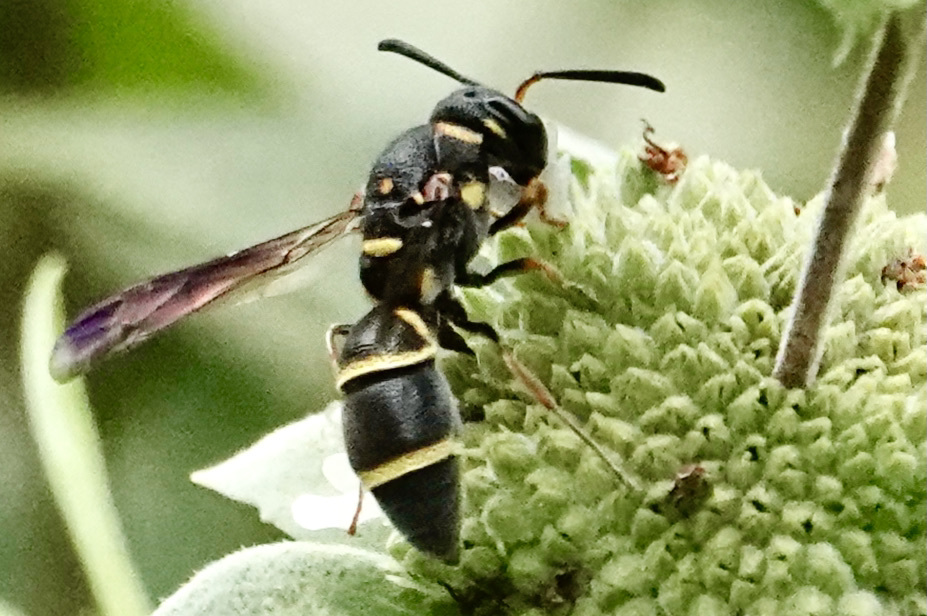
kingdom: Animalia
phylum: Arthropoda
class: Insecta
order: Hymenoptera
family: Eumenidae
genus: Parancistrocerus
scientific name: Parancistrocerus fulvipes
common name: Potter wasp
